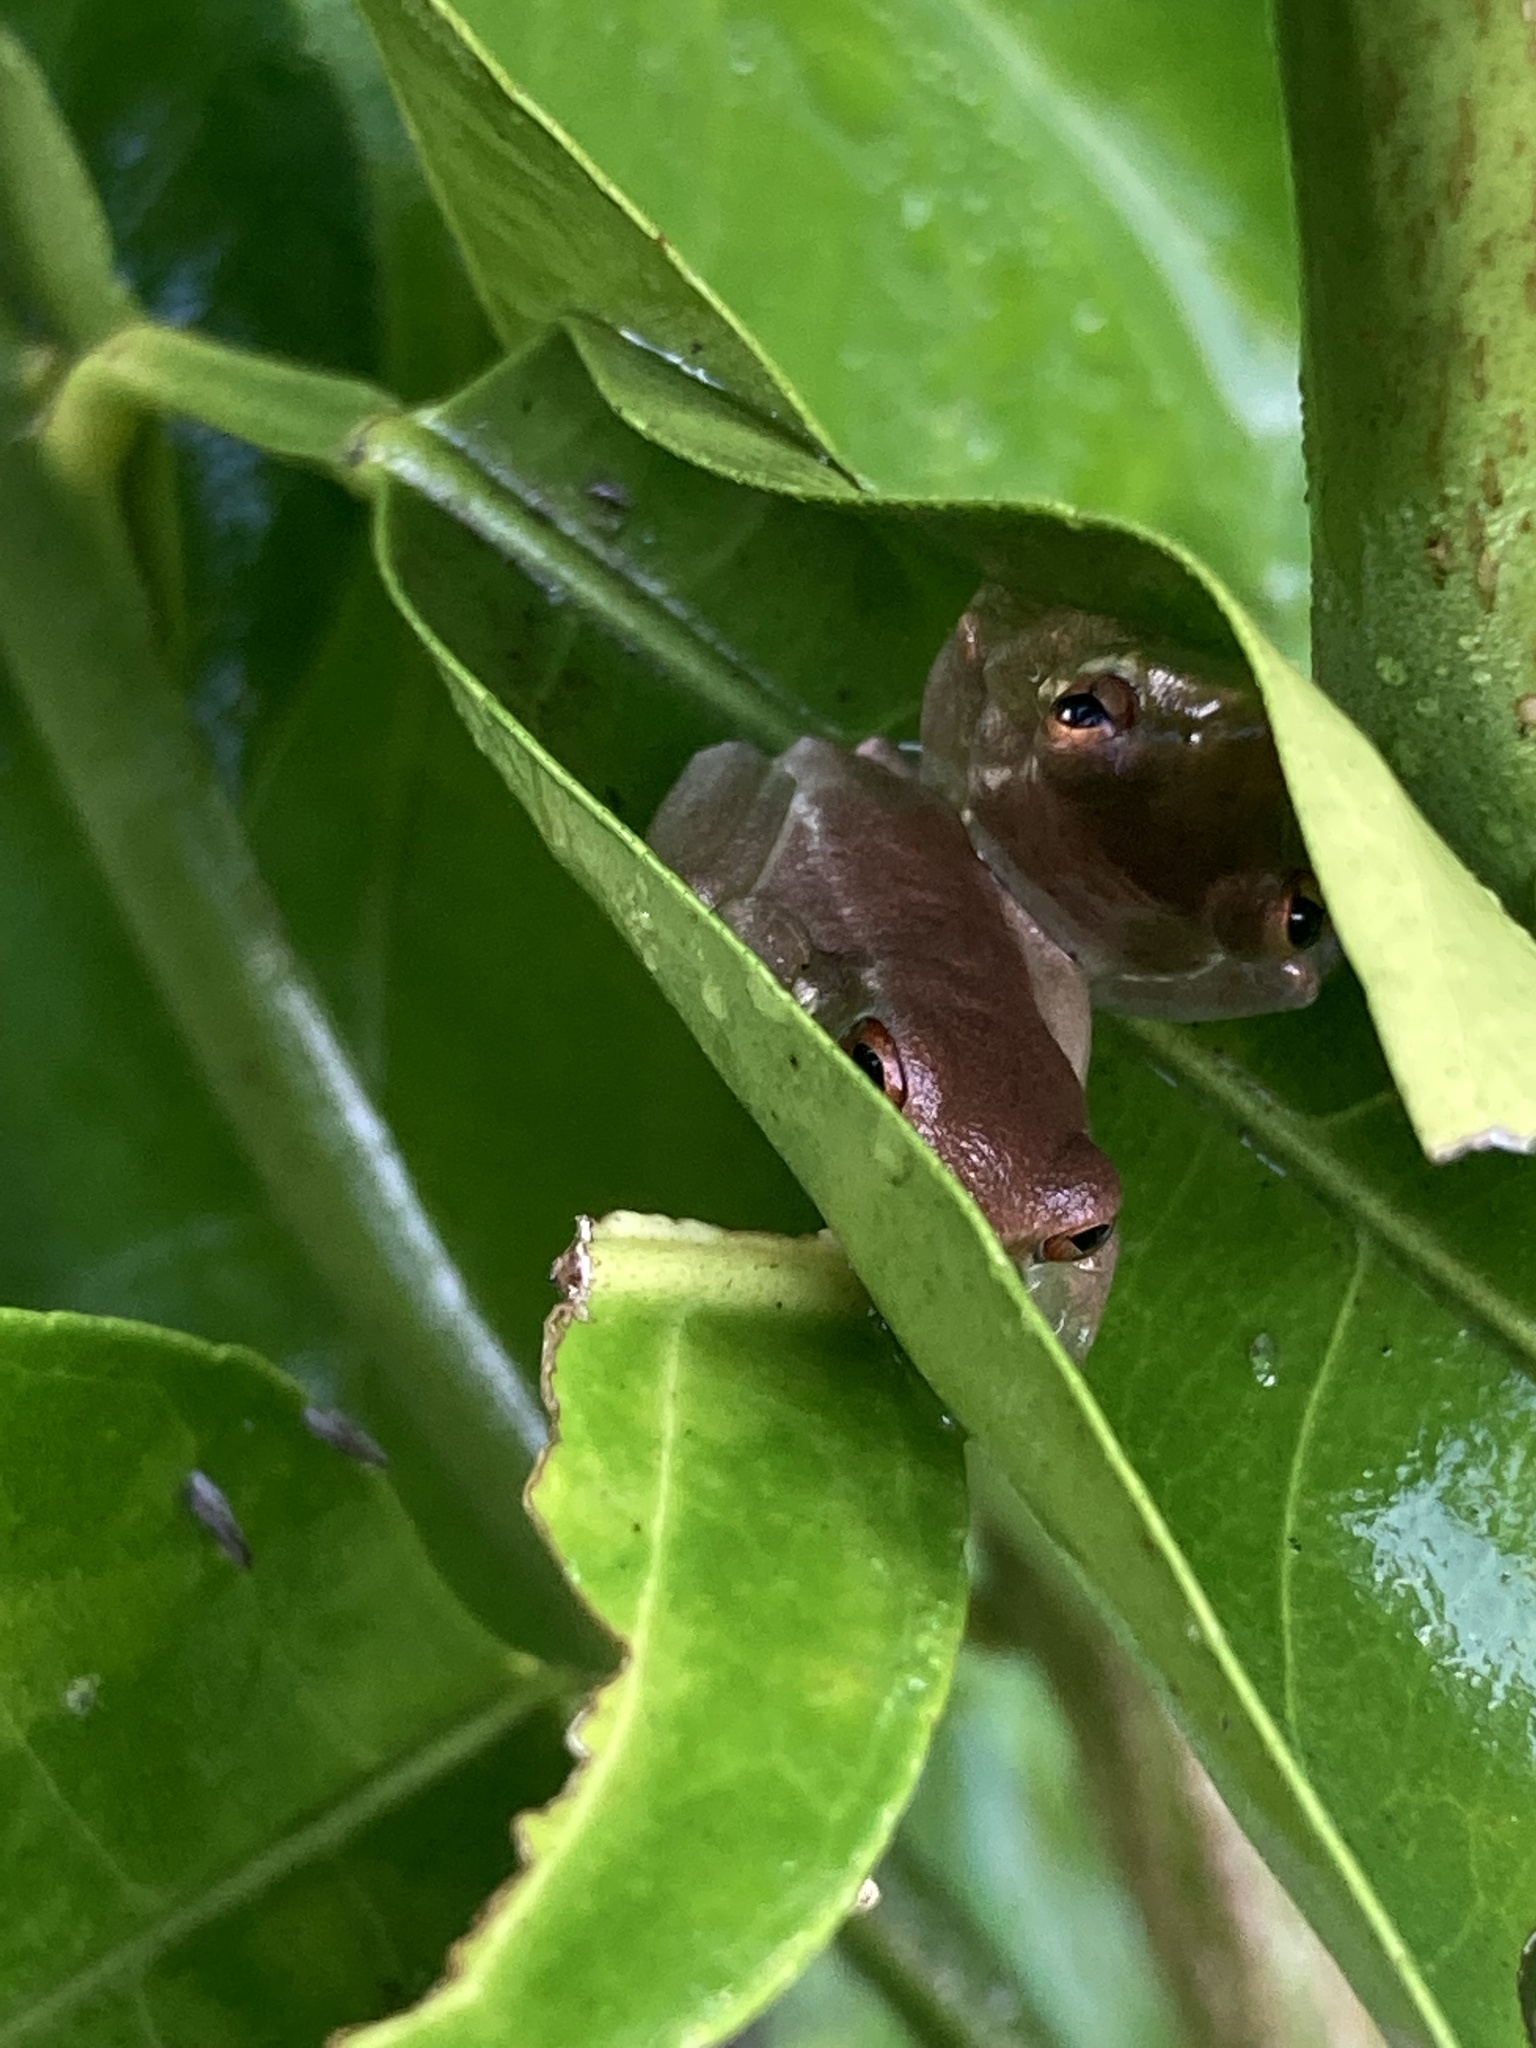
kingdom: Animalia
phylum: Chordata
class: Amphibia
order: Anura
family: Hylidae
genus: Osteopilus
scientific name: Osteopilus septentrionalis
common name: Cuban treefrog
